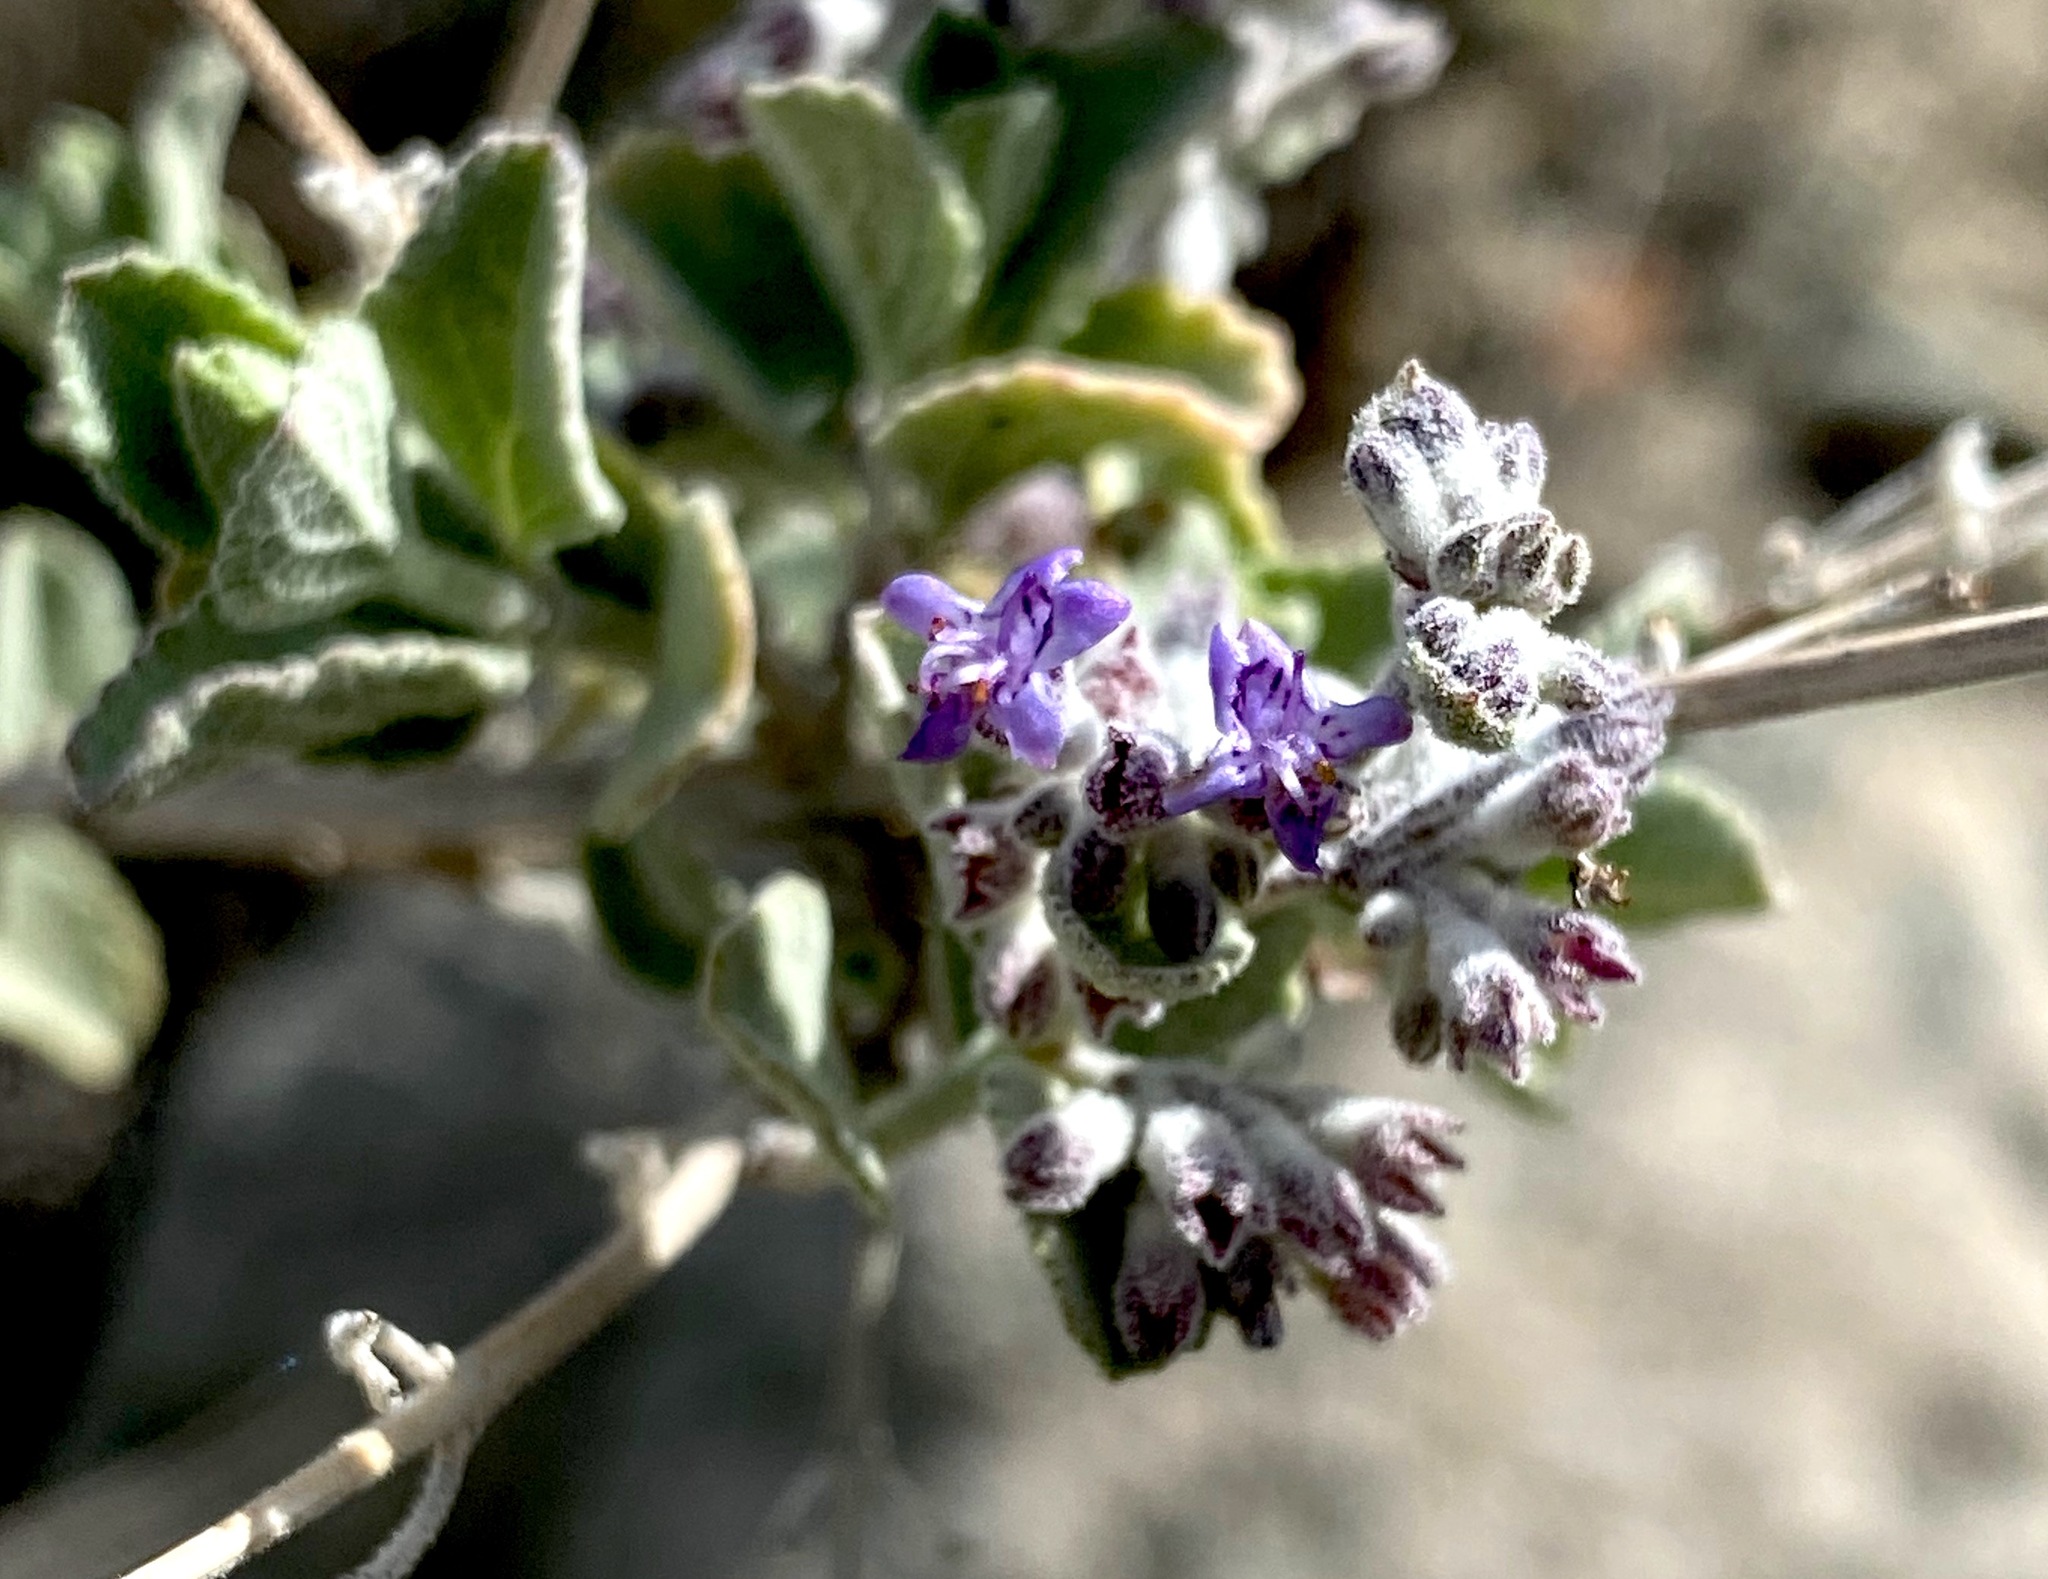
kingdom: Plantae
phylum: Tracheophyta
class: Magnoliopsida
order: Lamiales
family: Lamiaceae
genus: Condea
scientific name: Condea emoryi
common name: Chia
